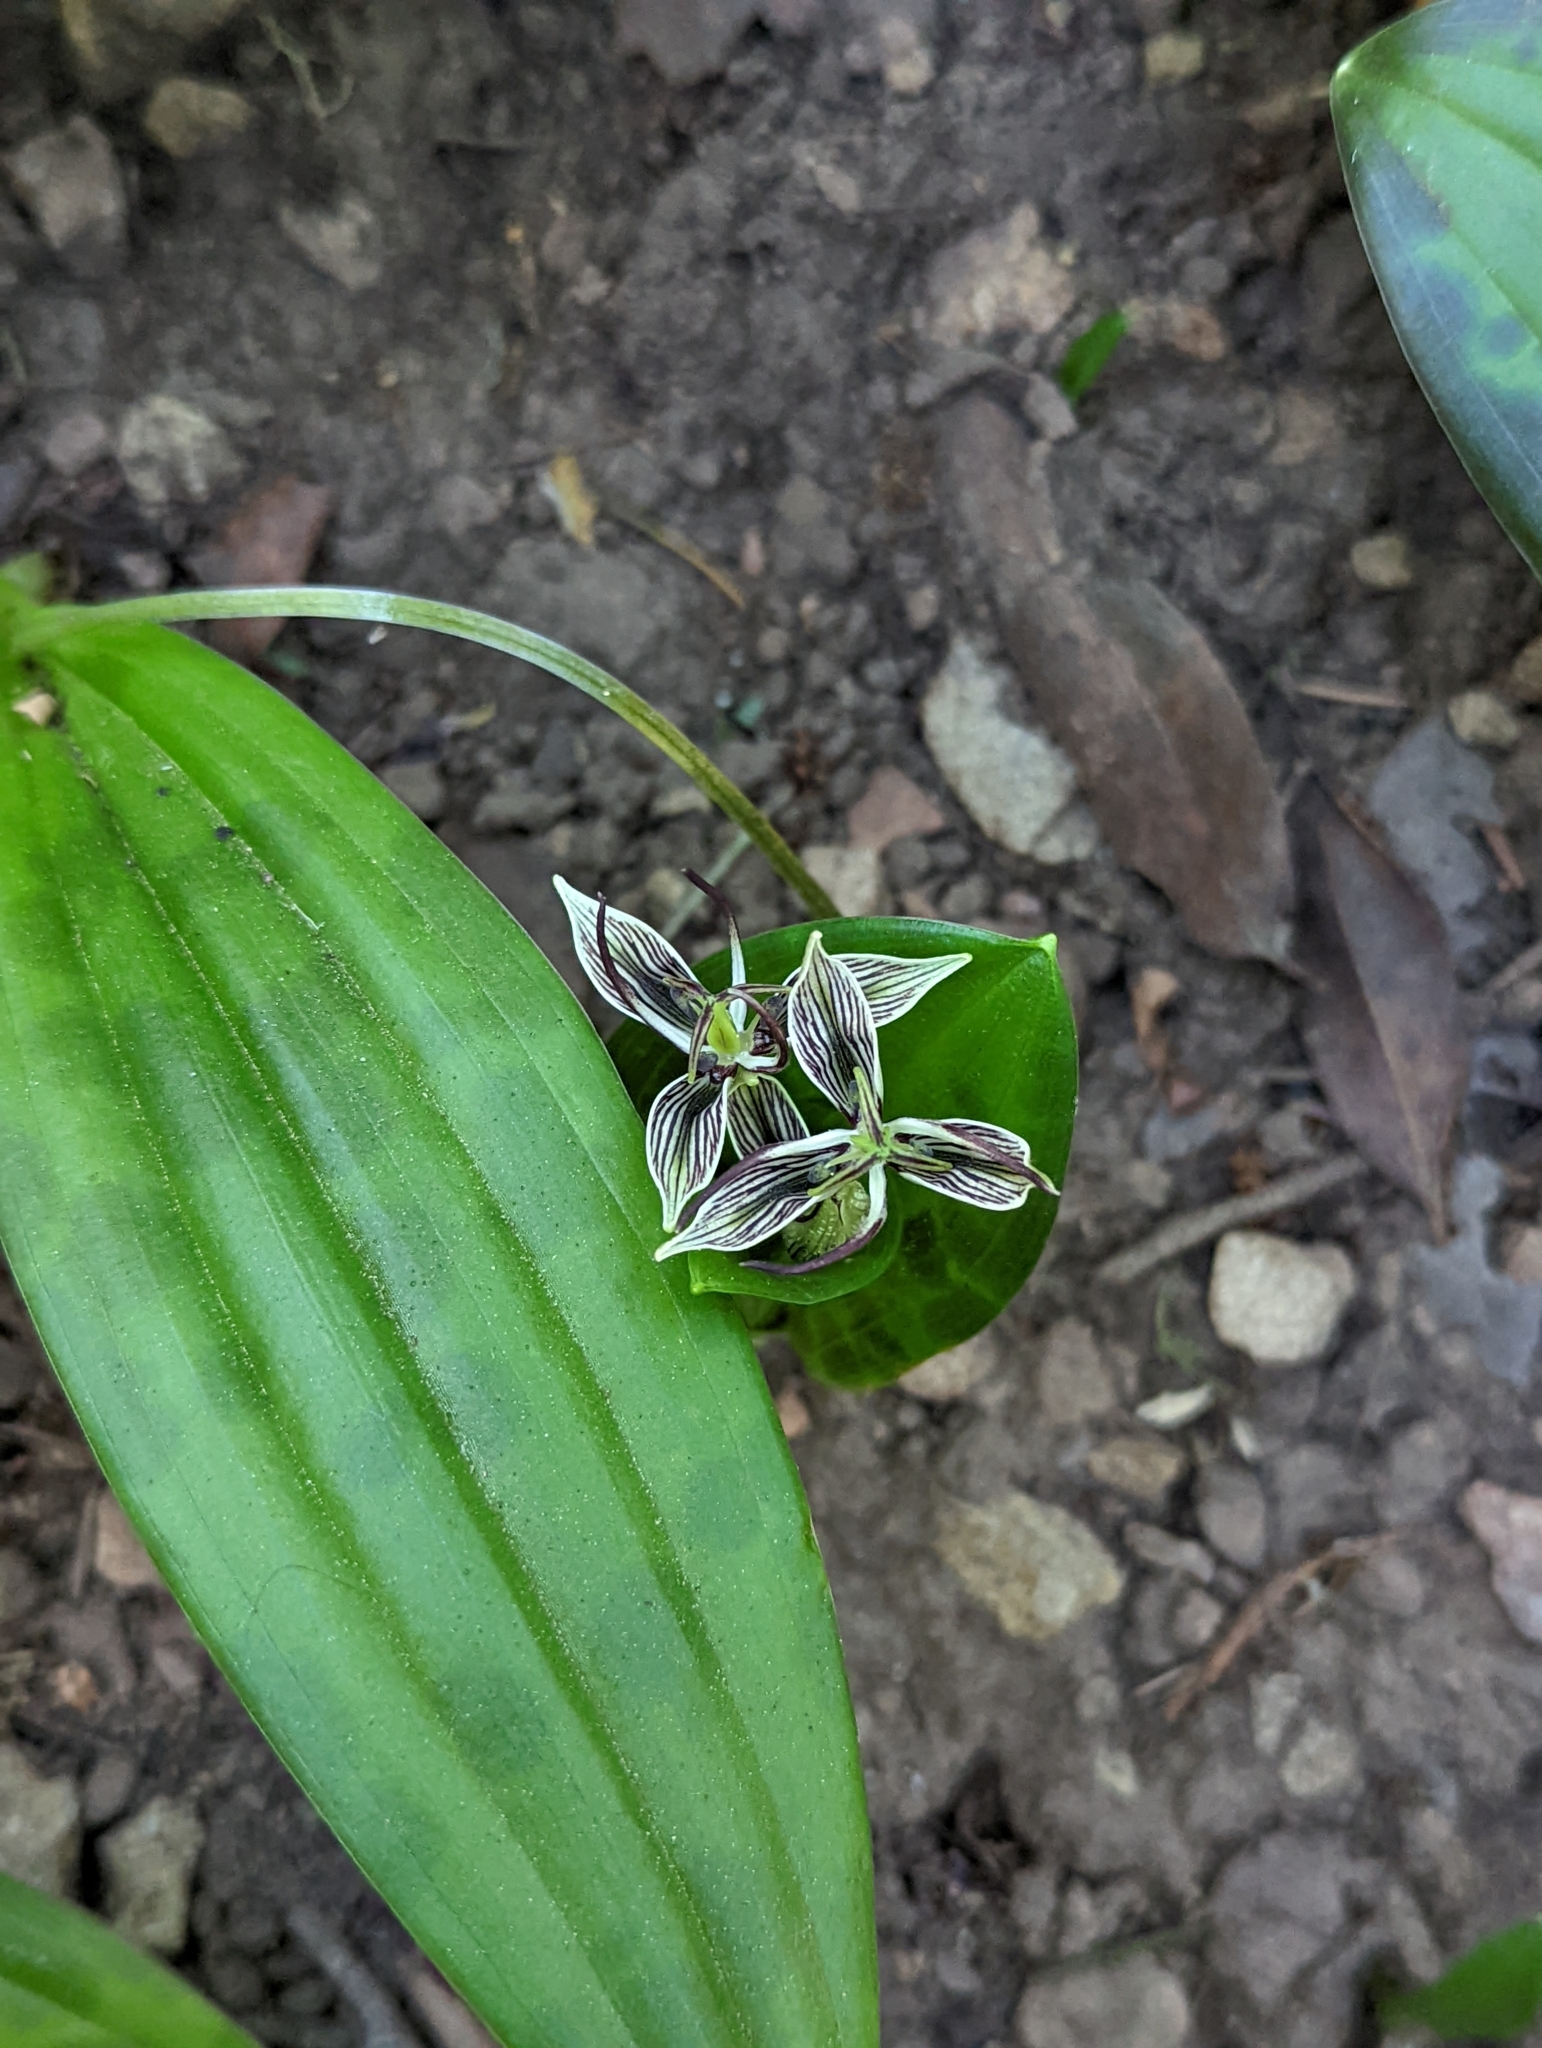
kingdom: Plantae
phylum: Tracheophyta
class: Liliopsida
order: Liliales
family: Liliaceae
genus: Scoliopus
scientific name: Scoliopus bigelovii
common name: Foetid adder's-tongue
